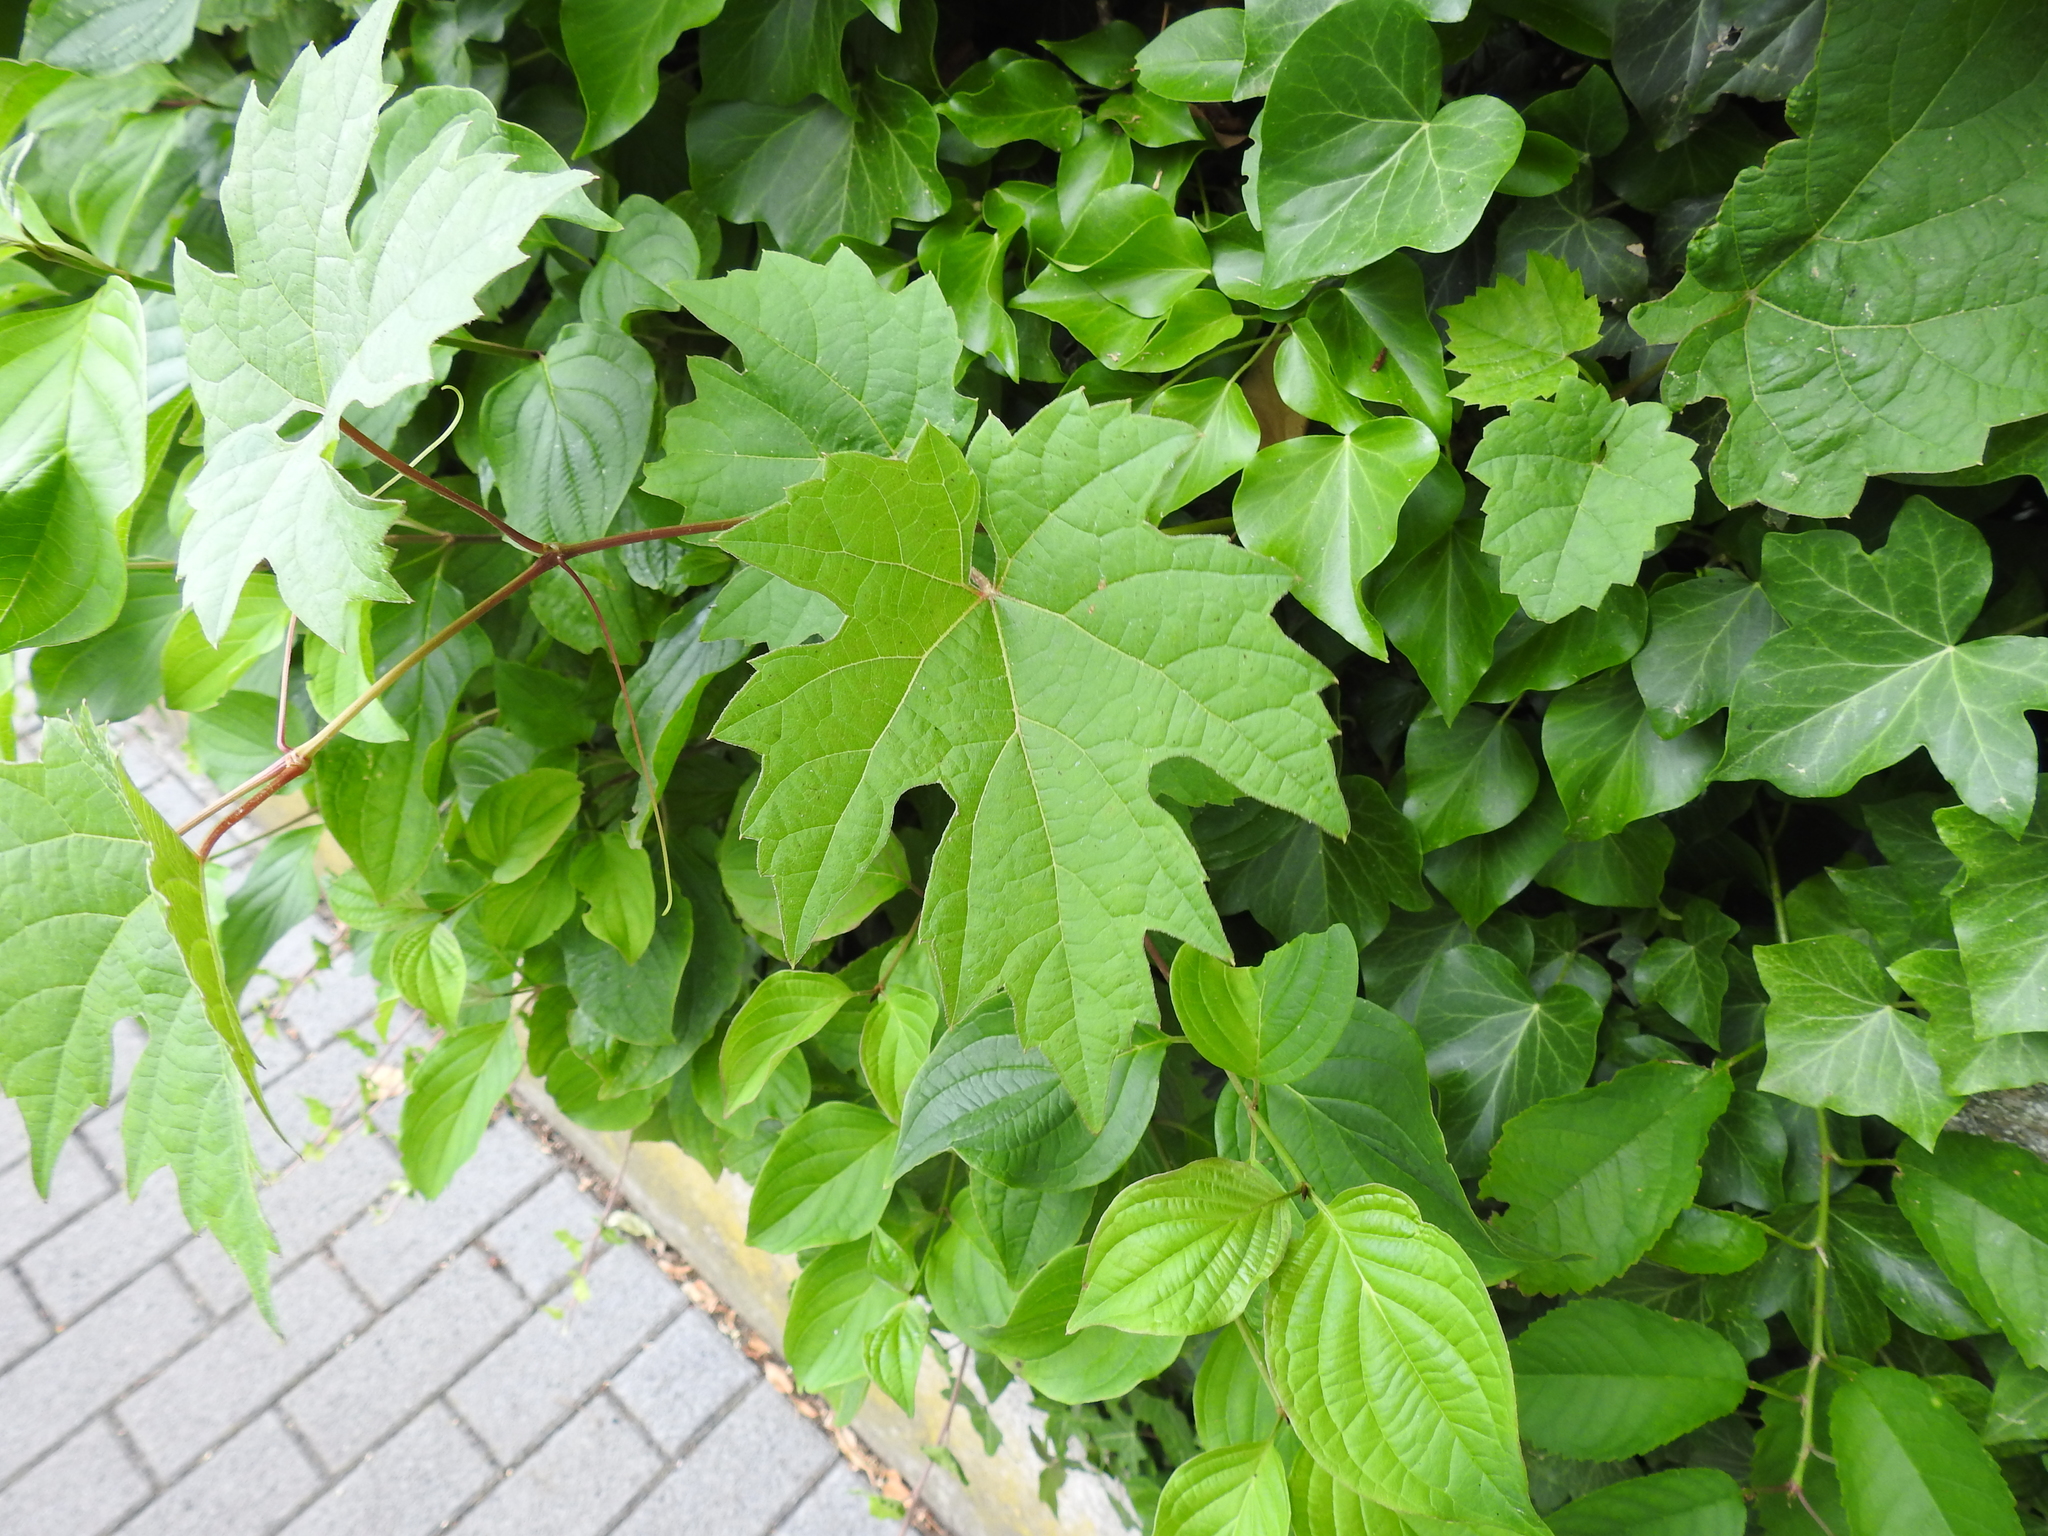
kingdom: Plantae
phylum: Tracheophyta
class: Magnoliopsida
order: Vitales
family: Vitaceae
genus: Vitis
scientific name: Vitis vinifera
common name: Grape-vine
